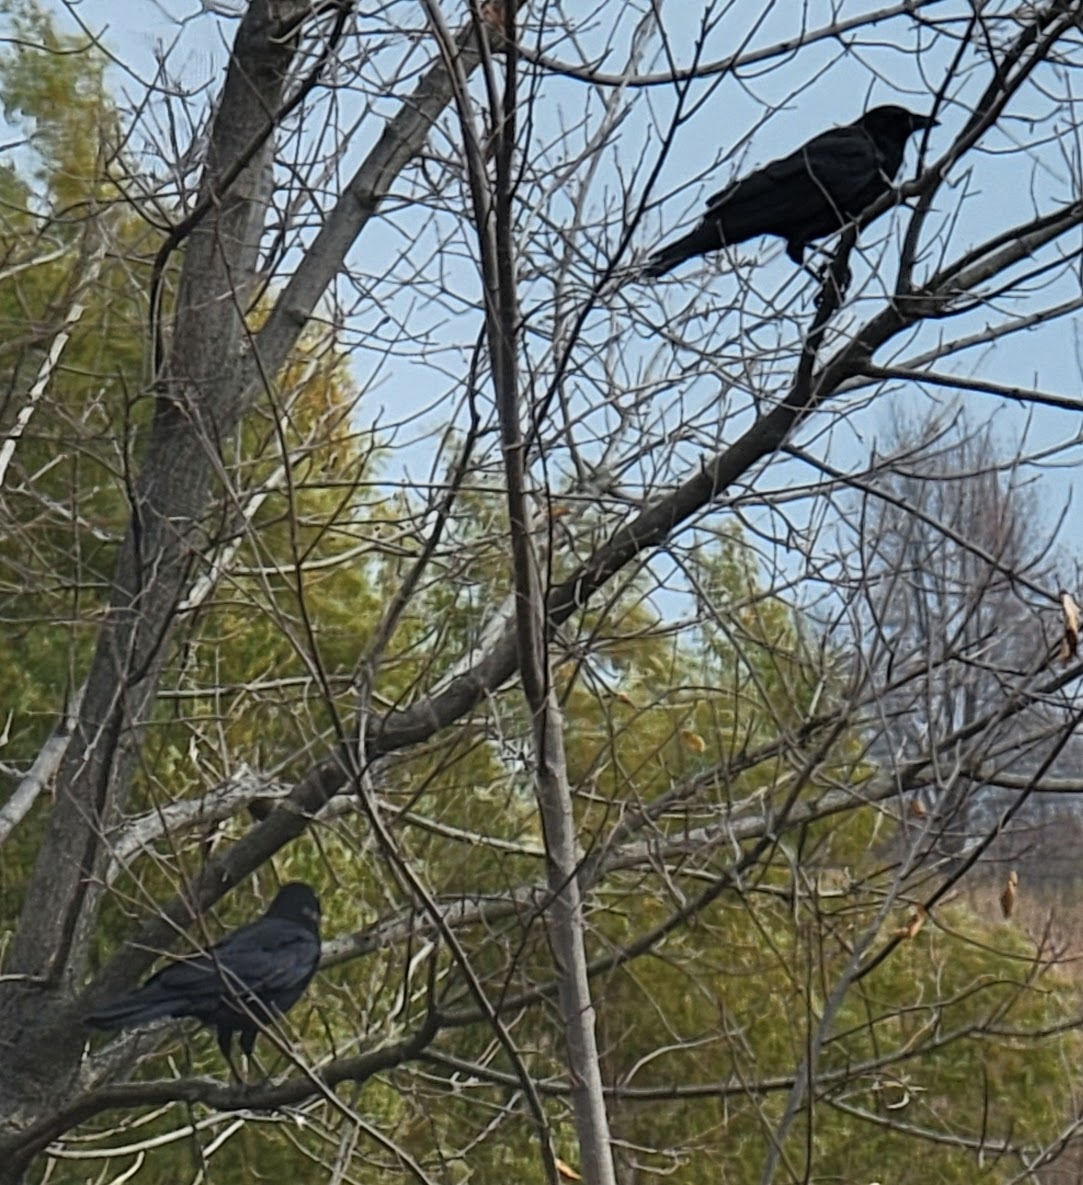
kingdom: Animalia
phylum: Chordata
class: Aves
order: Passeriformes
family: Corvidae
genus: Corvus
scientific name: Corvus brachyrhynchos
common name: American crow
